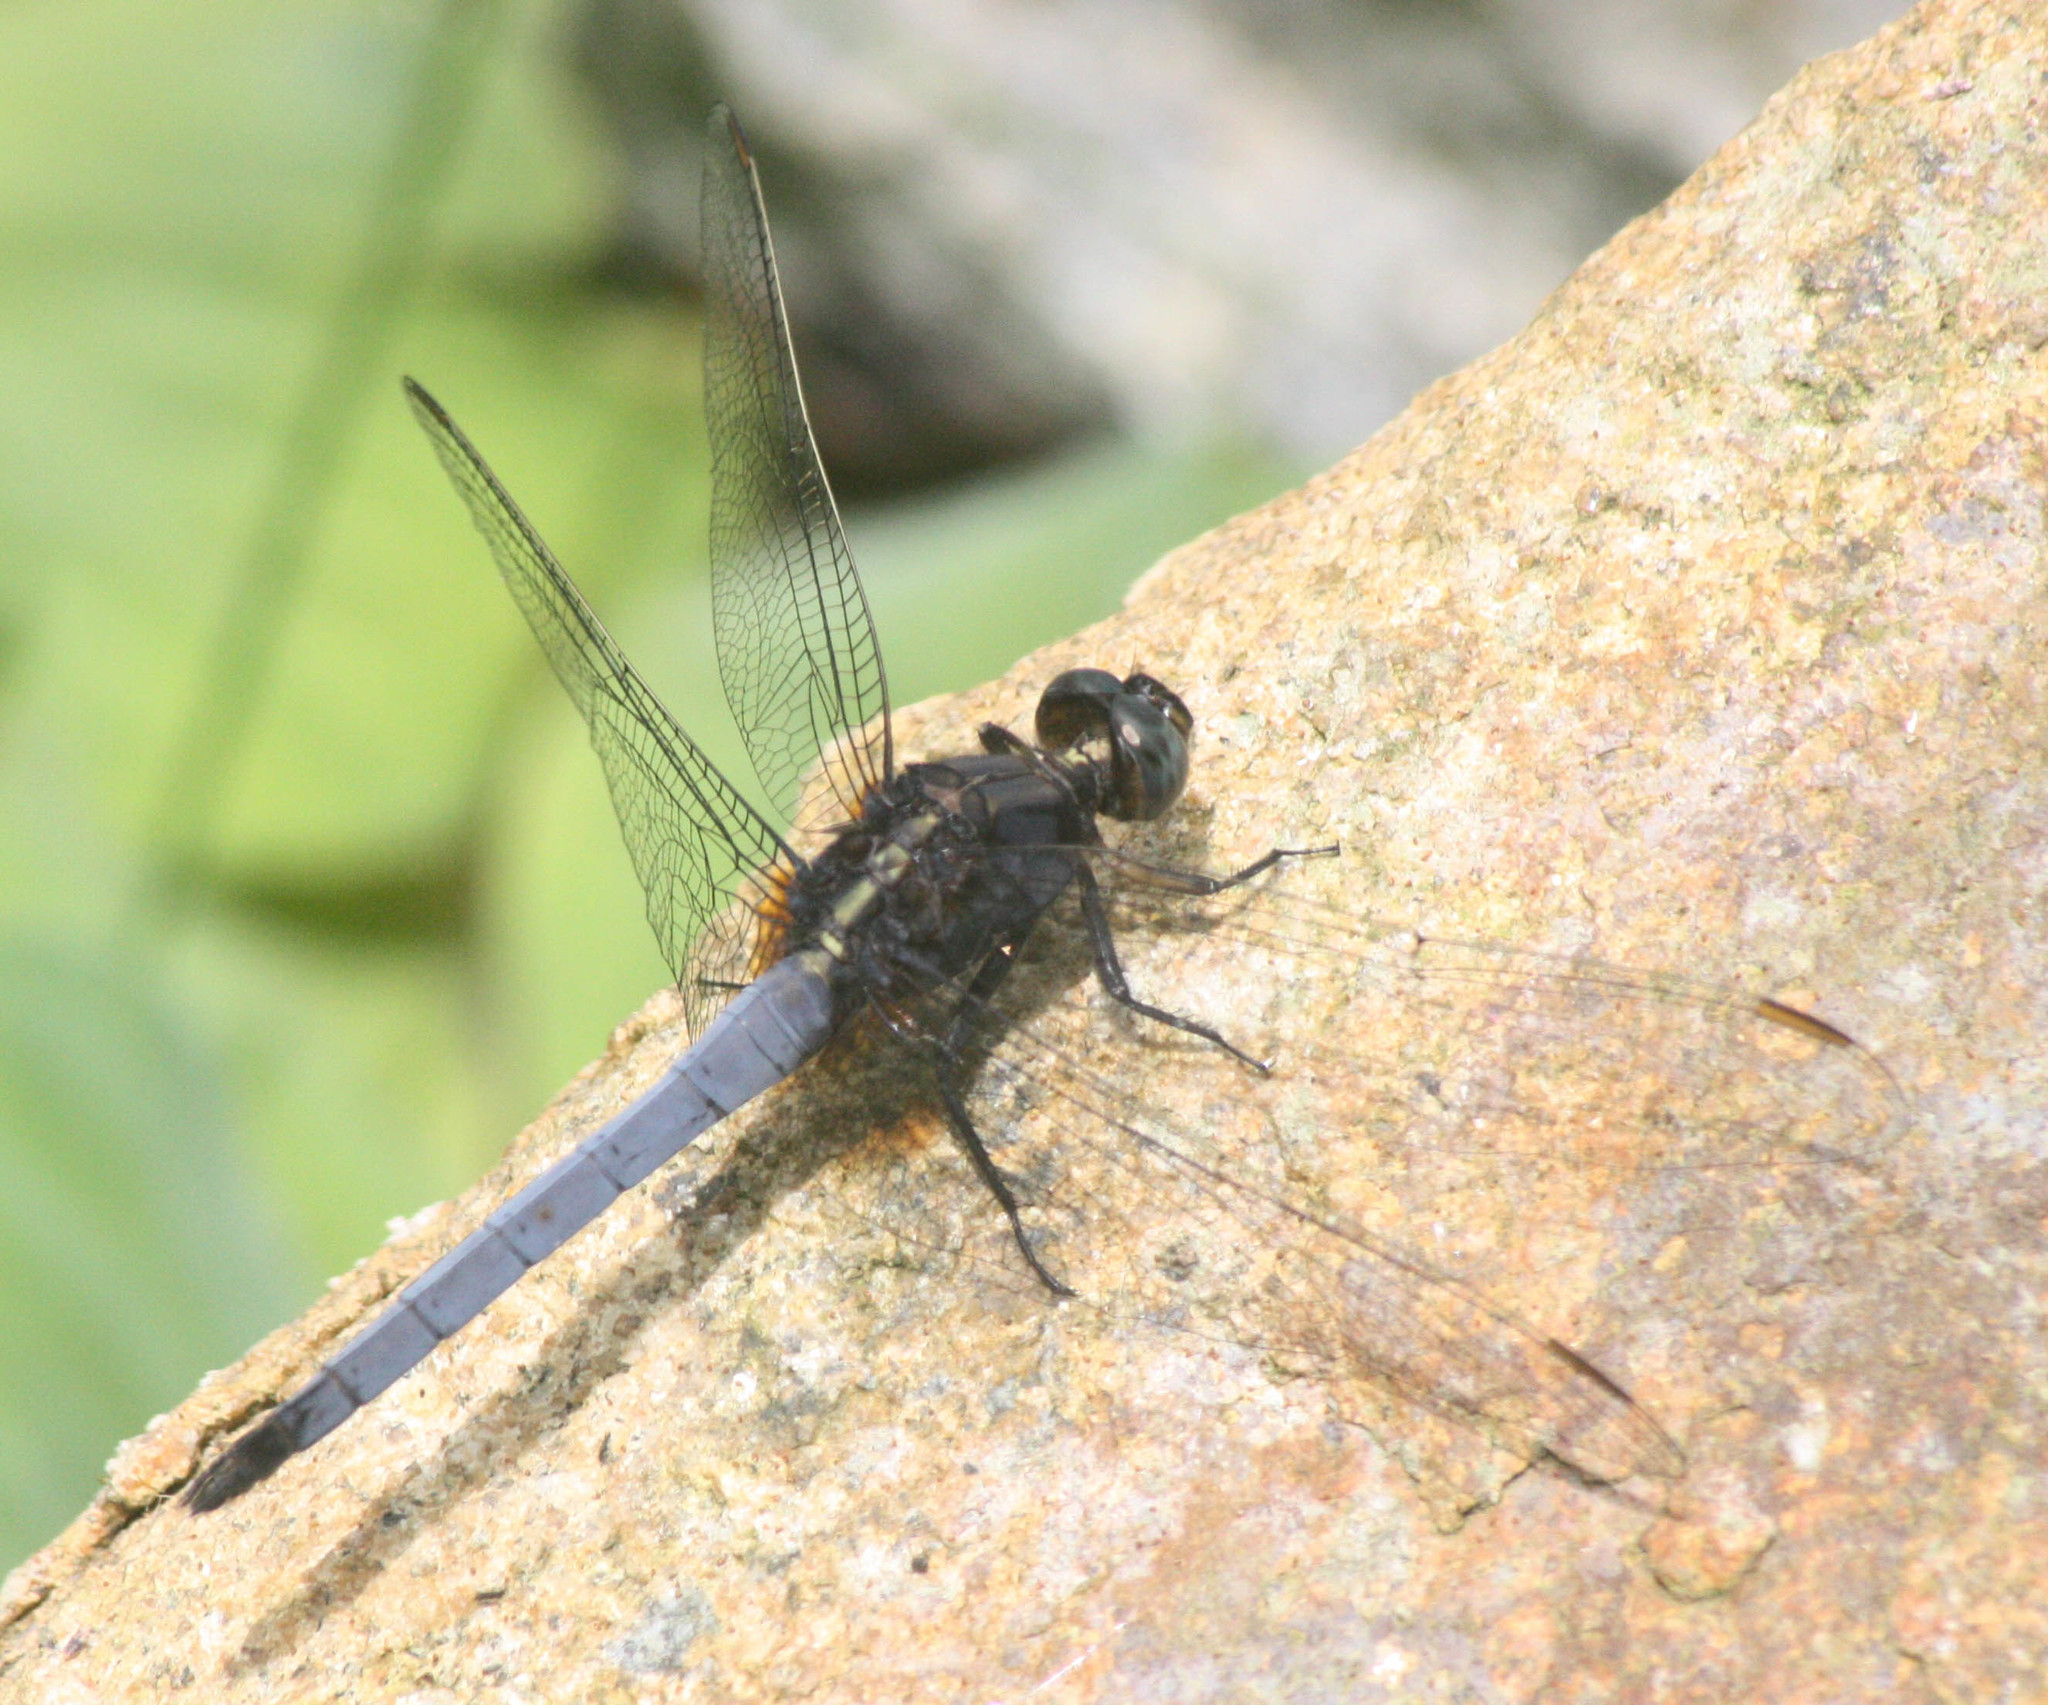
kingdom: Animalia
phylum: Arthropoda
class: Insecta
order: Odonata
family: Libellulidae
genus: Orthetrum
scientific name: Orthetrum glaucum
